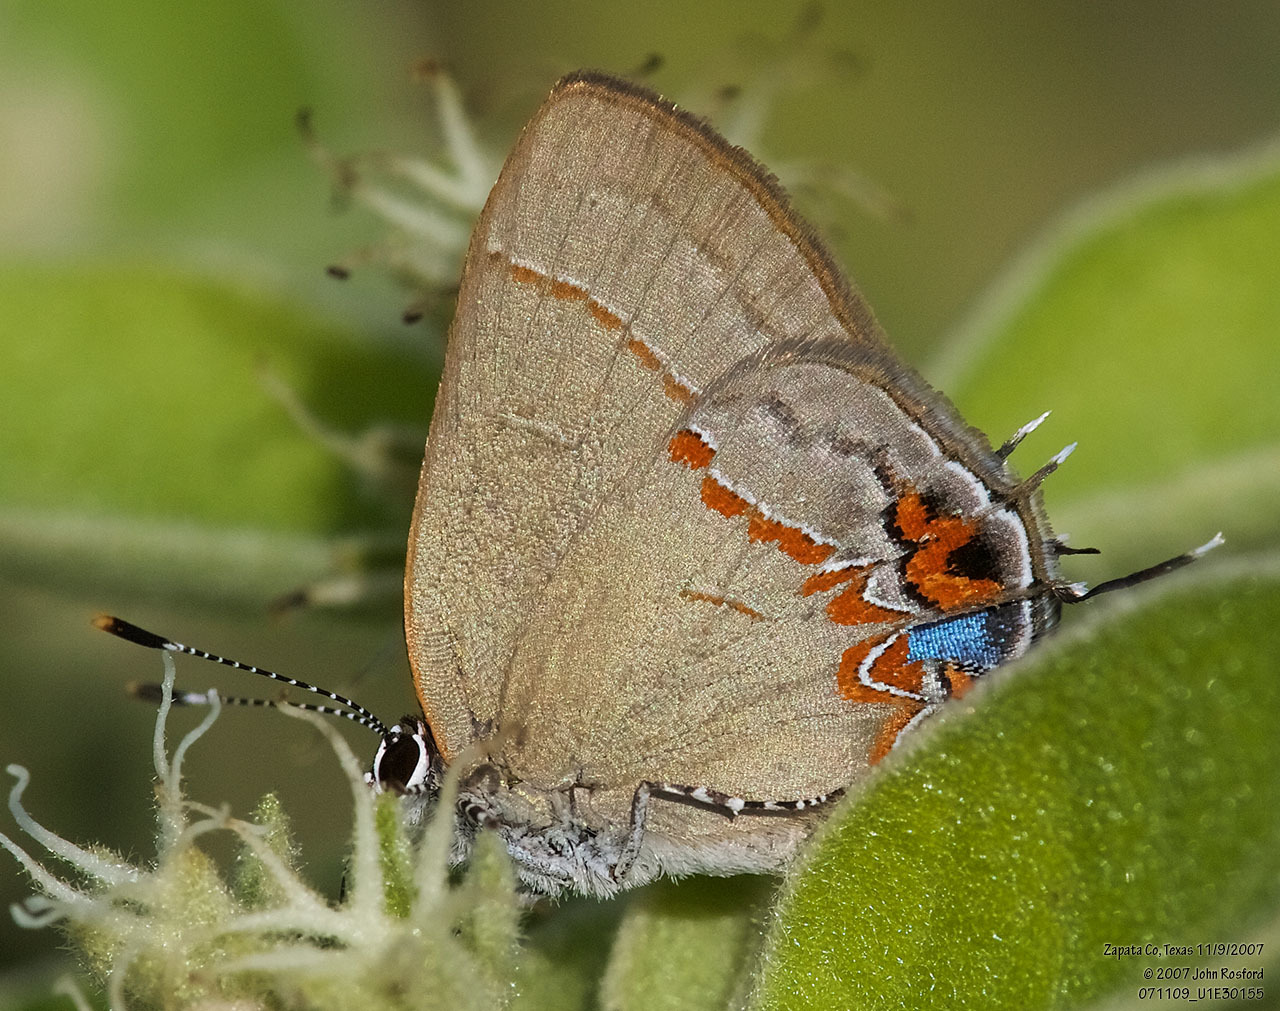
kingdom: Animalia
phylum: Arthropoda
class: Insecta
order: Lepidoptera
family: Lycaenidae
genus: Calycopis
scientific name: Calycopis isobeon
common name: Dusky-blue groundstreak
